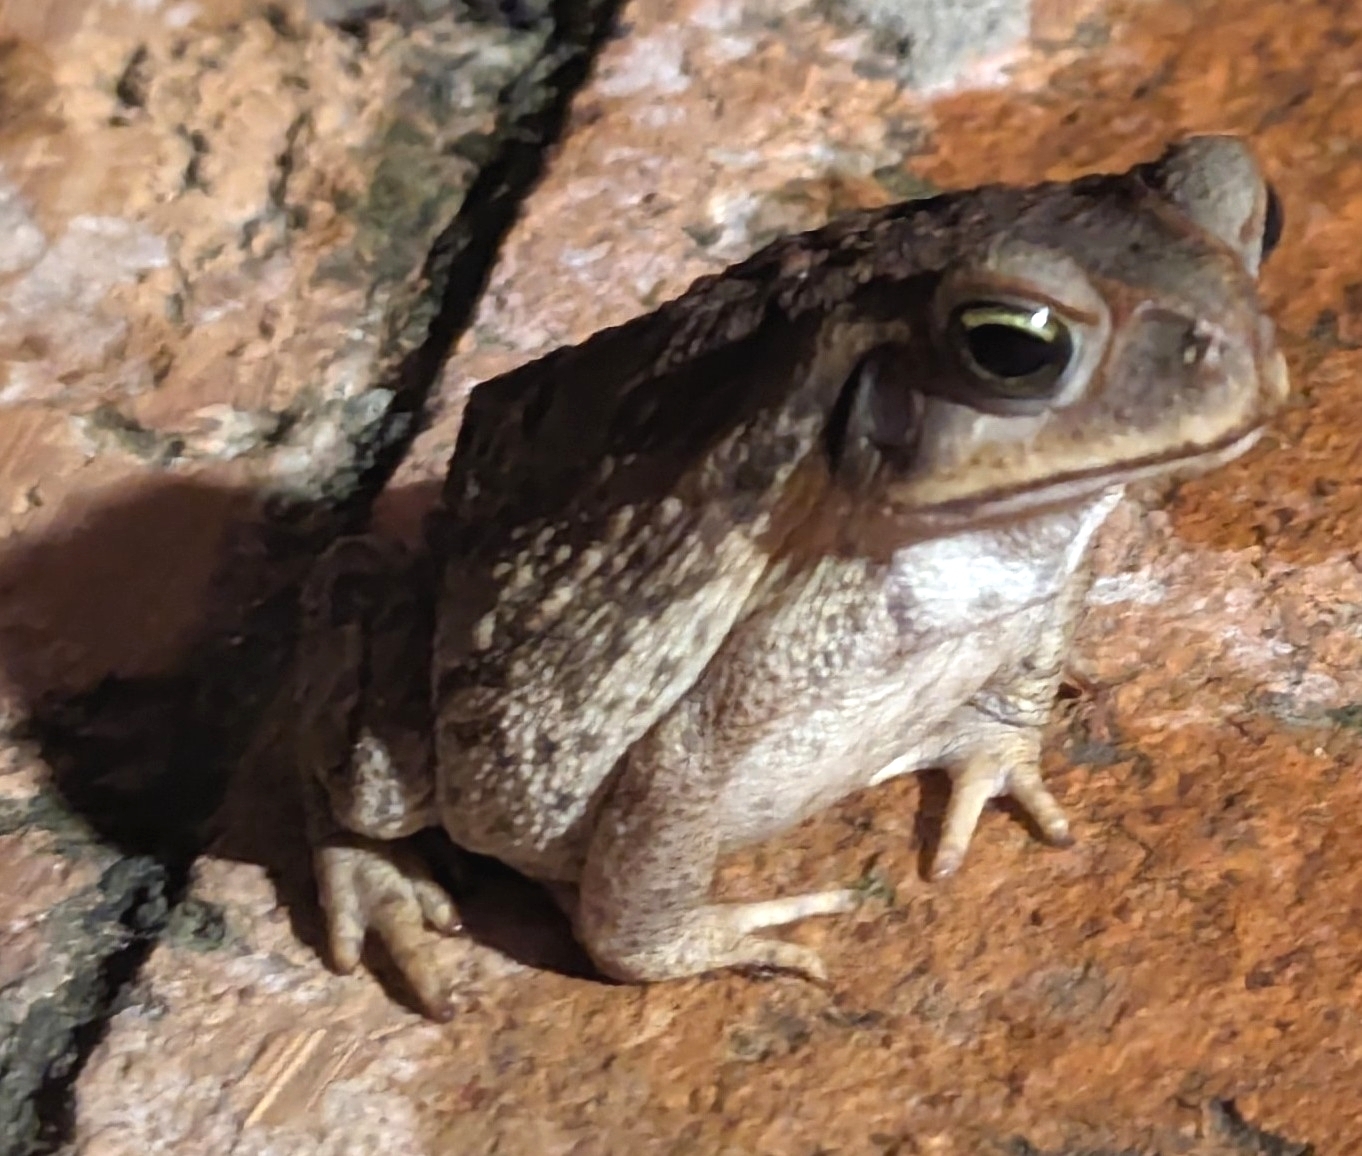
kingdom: Animalia
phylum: Chordata
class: Amphibia
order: Anura
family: Bufonidae
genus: Rhinella
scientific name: Rhinella diptycha
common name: Cope's toad
